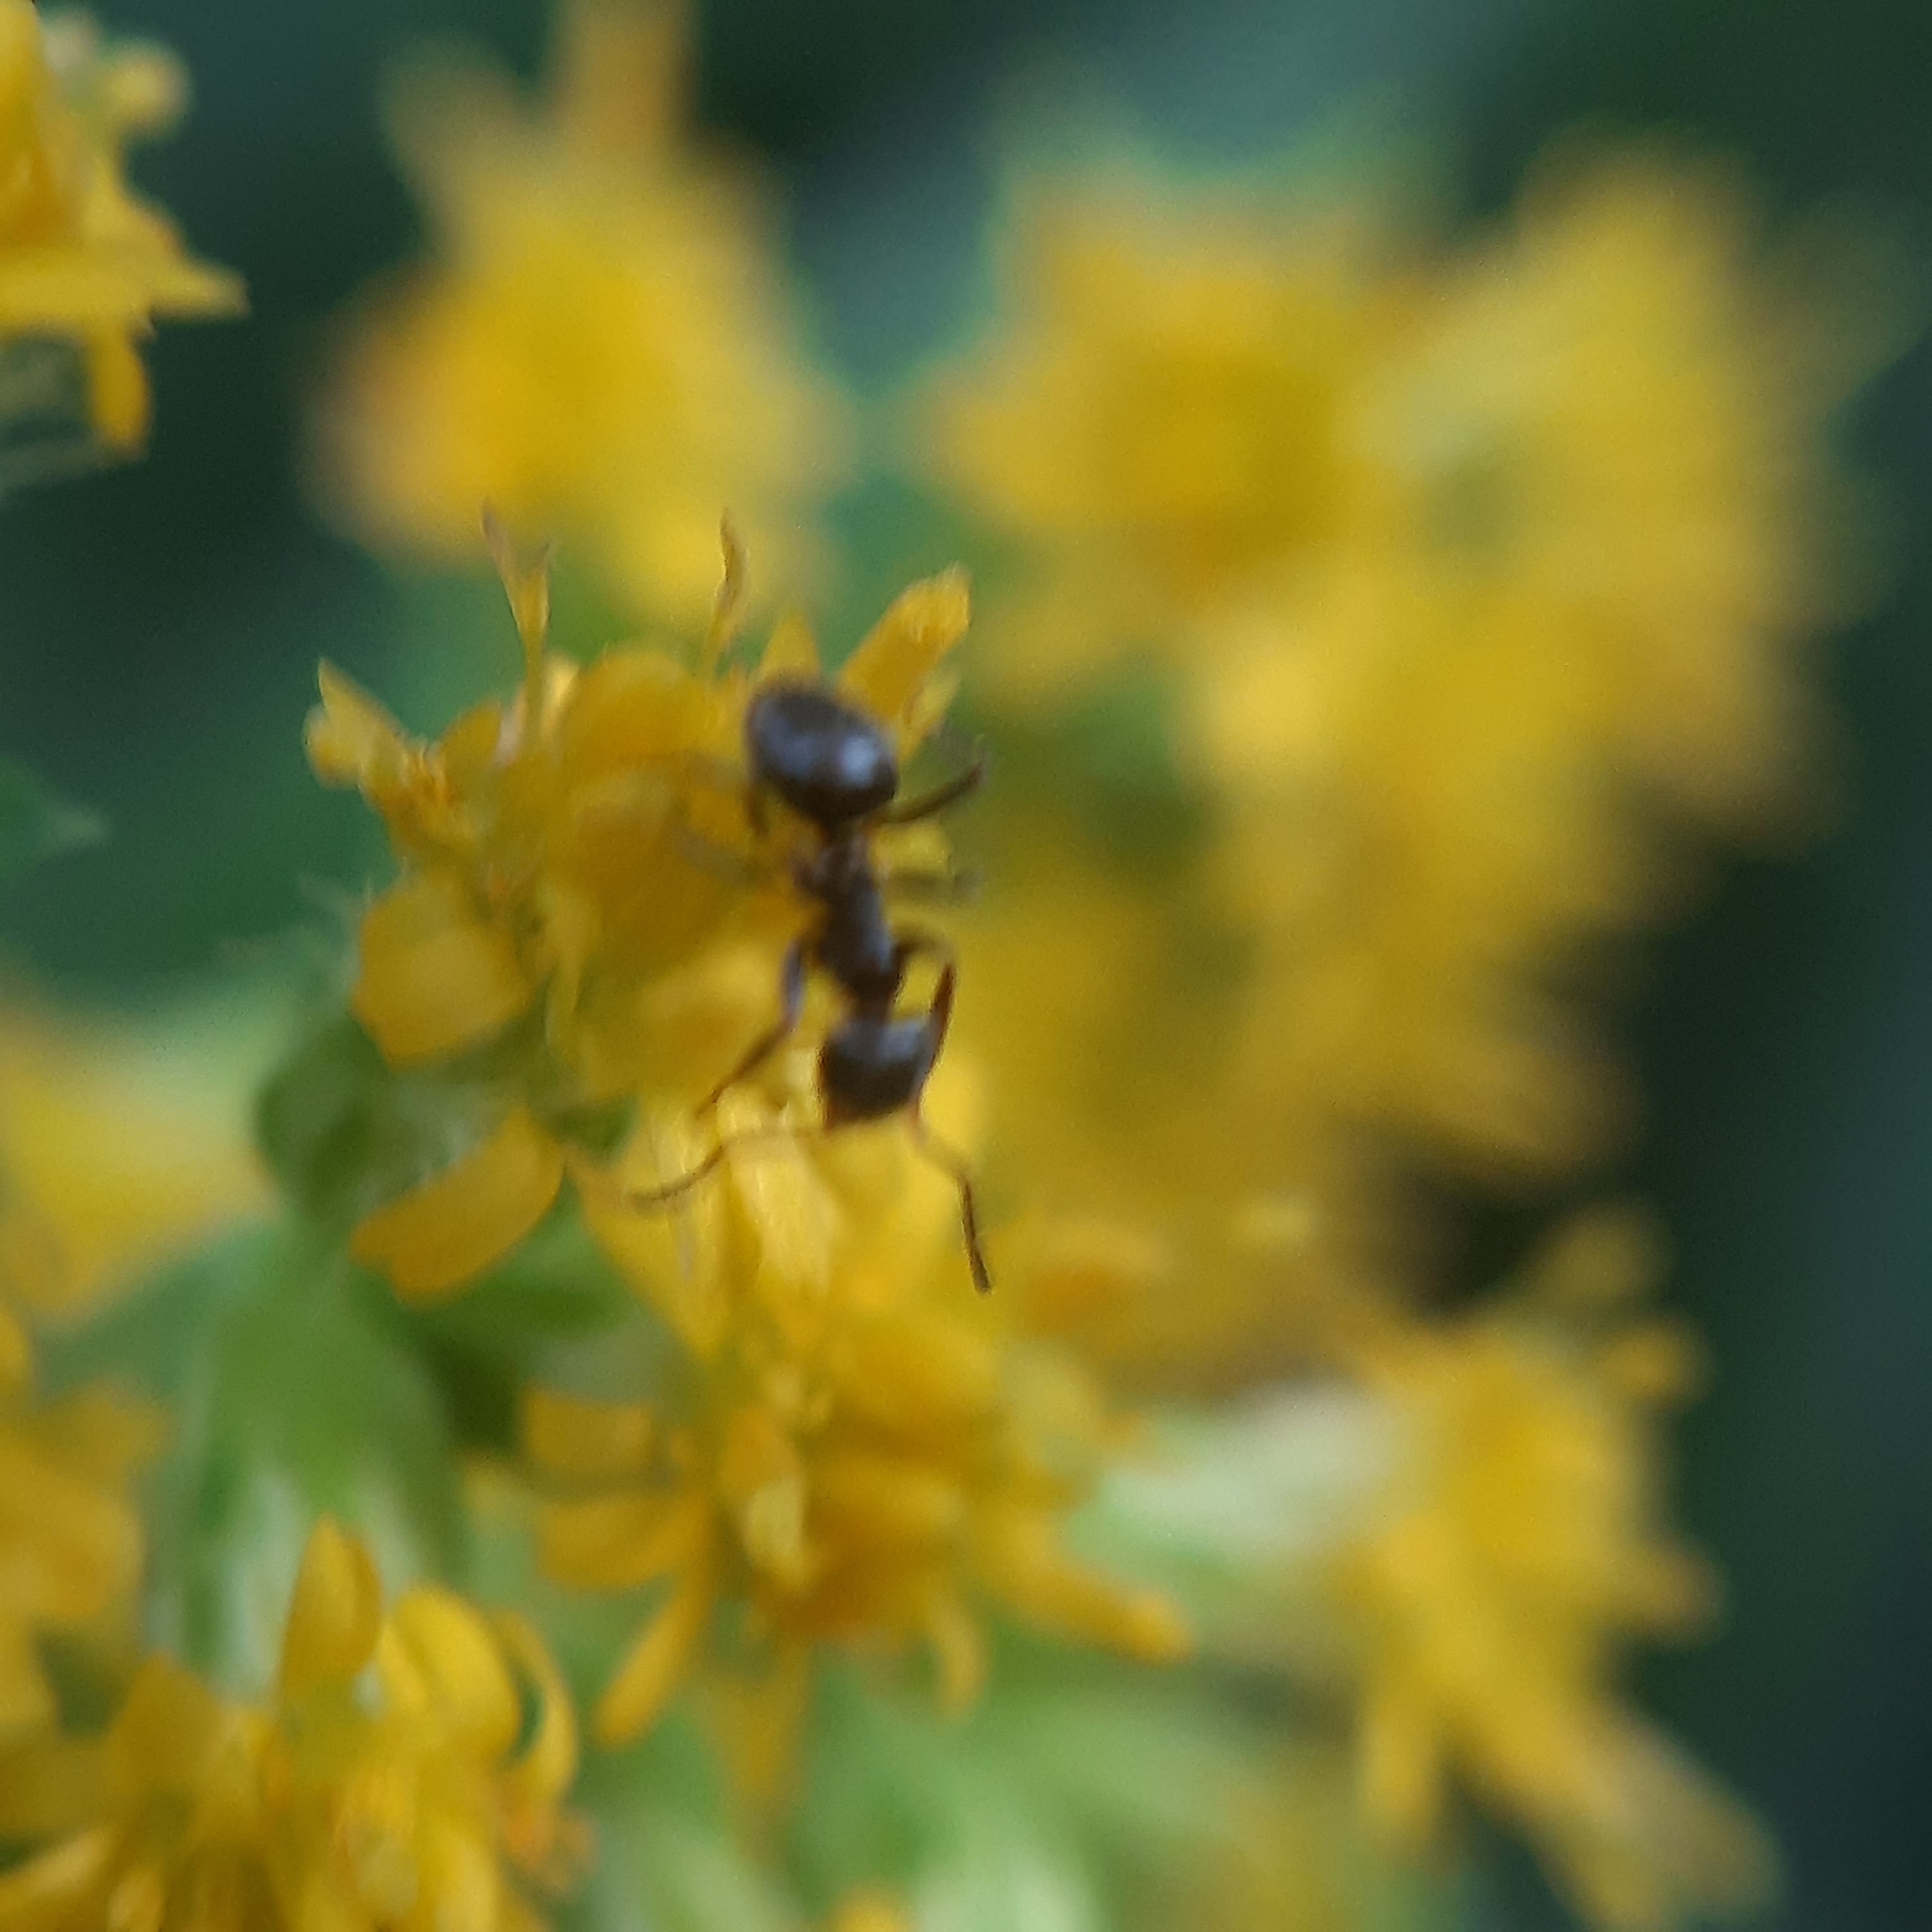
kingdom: Animalia
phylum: Arthropoda
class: Insecta
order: Hymenoptera
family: Formicidae
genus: Lasius
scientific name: Lasius
